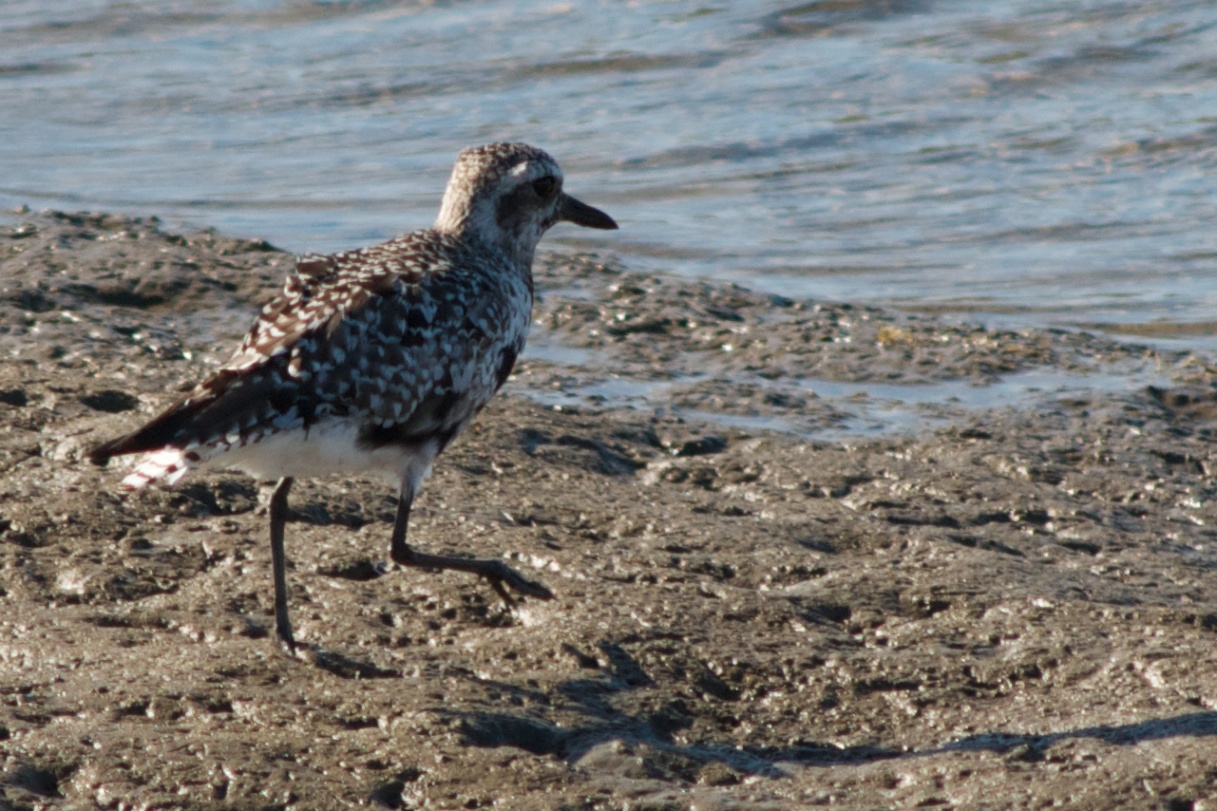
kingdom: Animalia
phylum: Chordata
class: Aves
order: Charadriiformes
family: Charadriidae
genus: Pluvialis
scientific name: Pluvialis squatarola
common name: Grey plover
